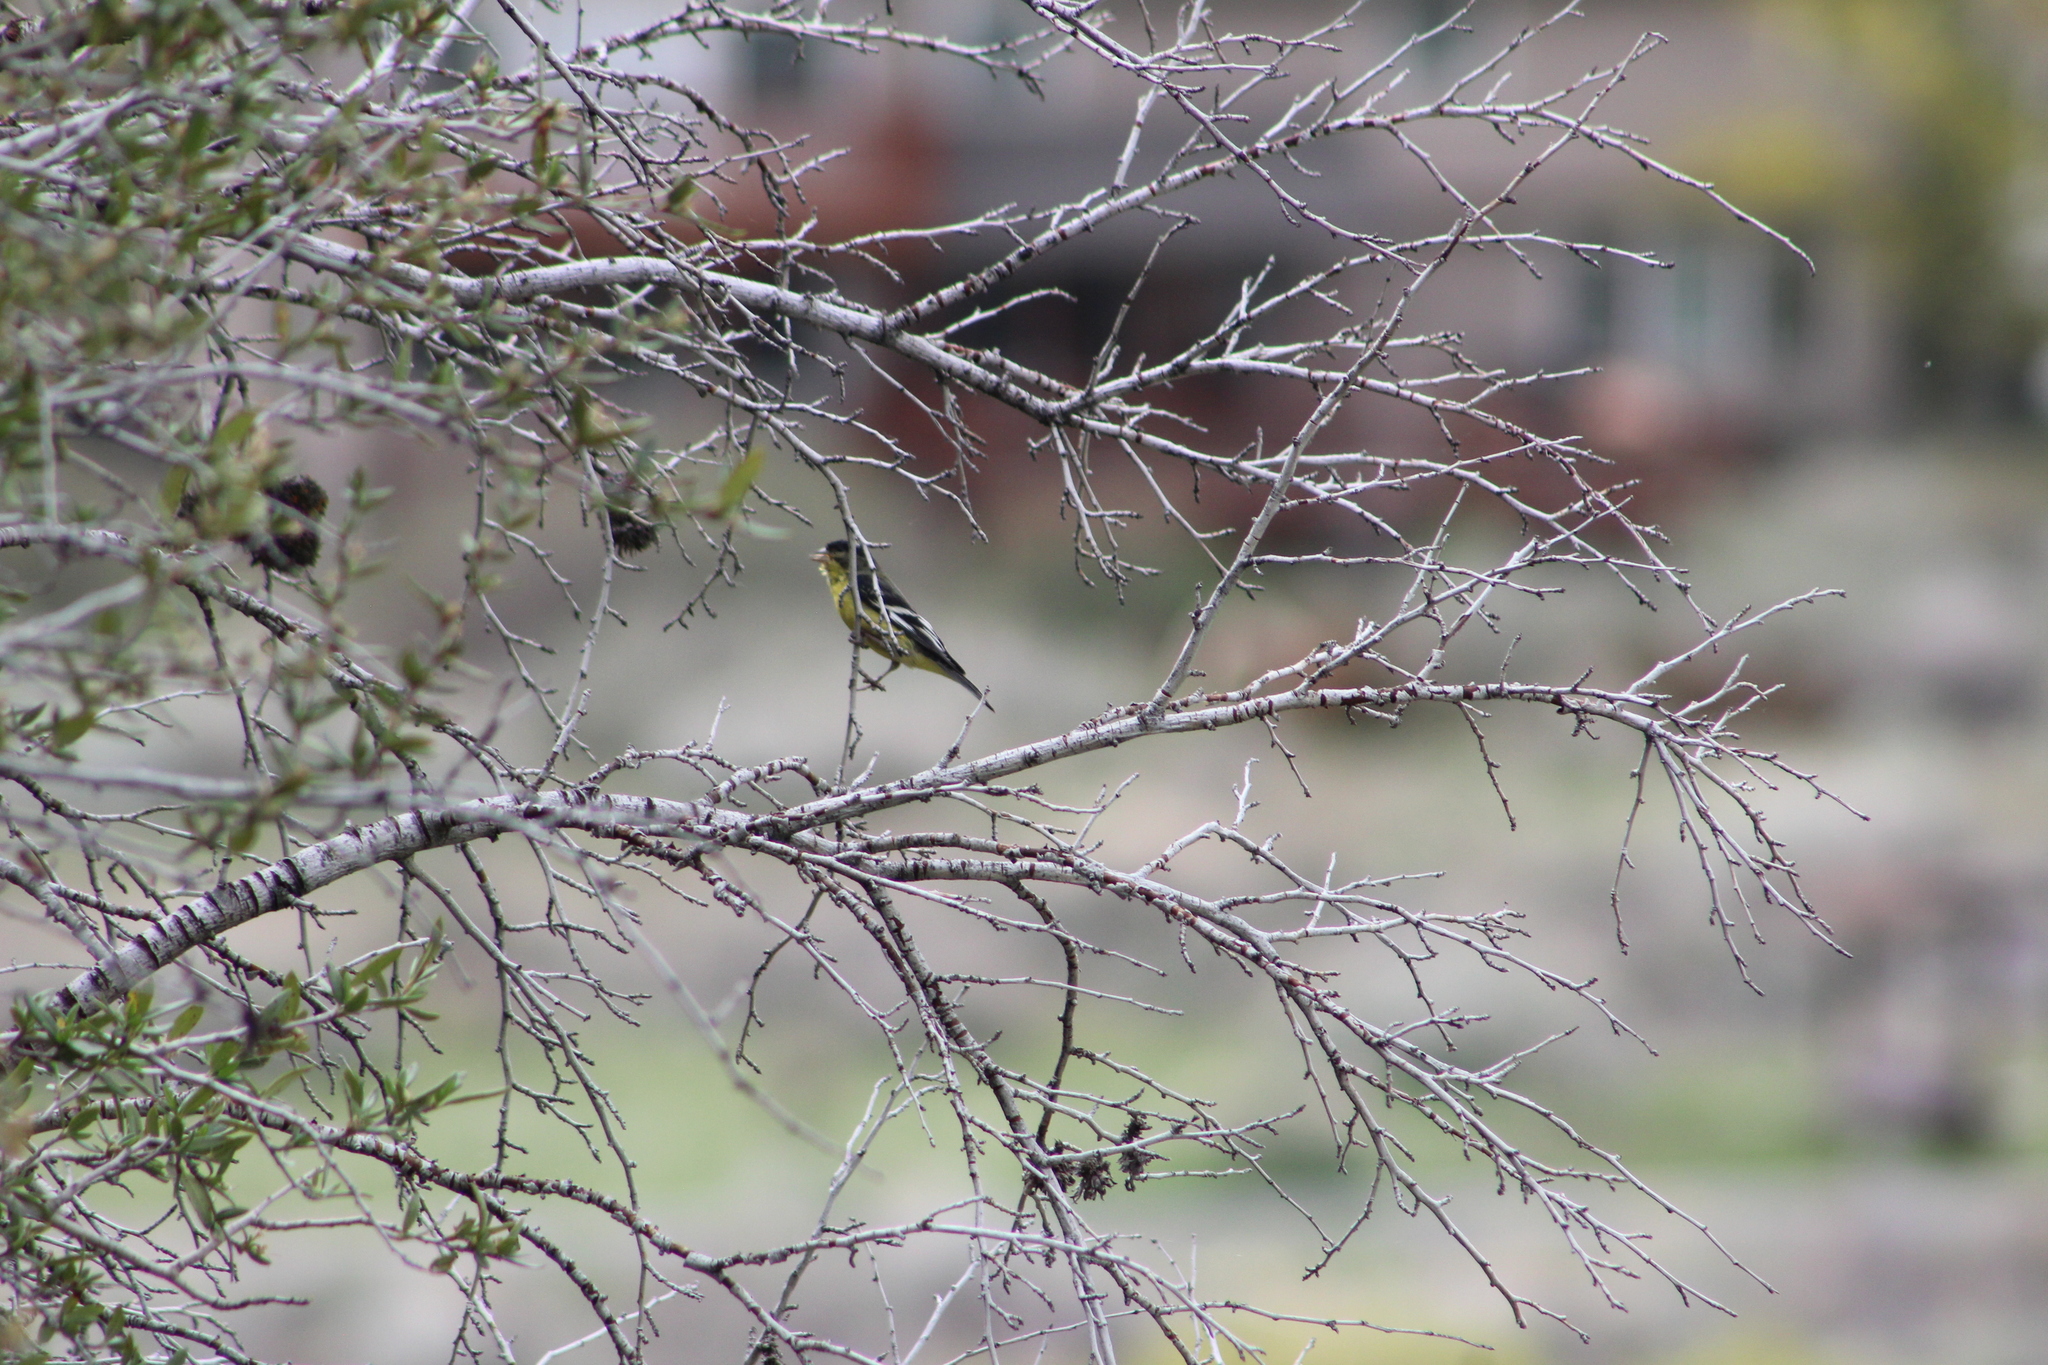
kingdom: Animalia
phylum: Chordata
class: Aves
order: Passeriformes
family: Fringillidae
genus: Spinus
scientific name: Spinus psaltria
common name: Lesser goldfinch
